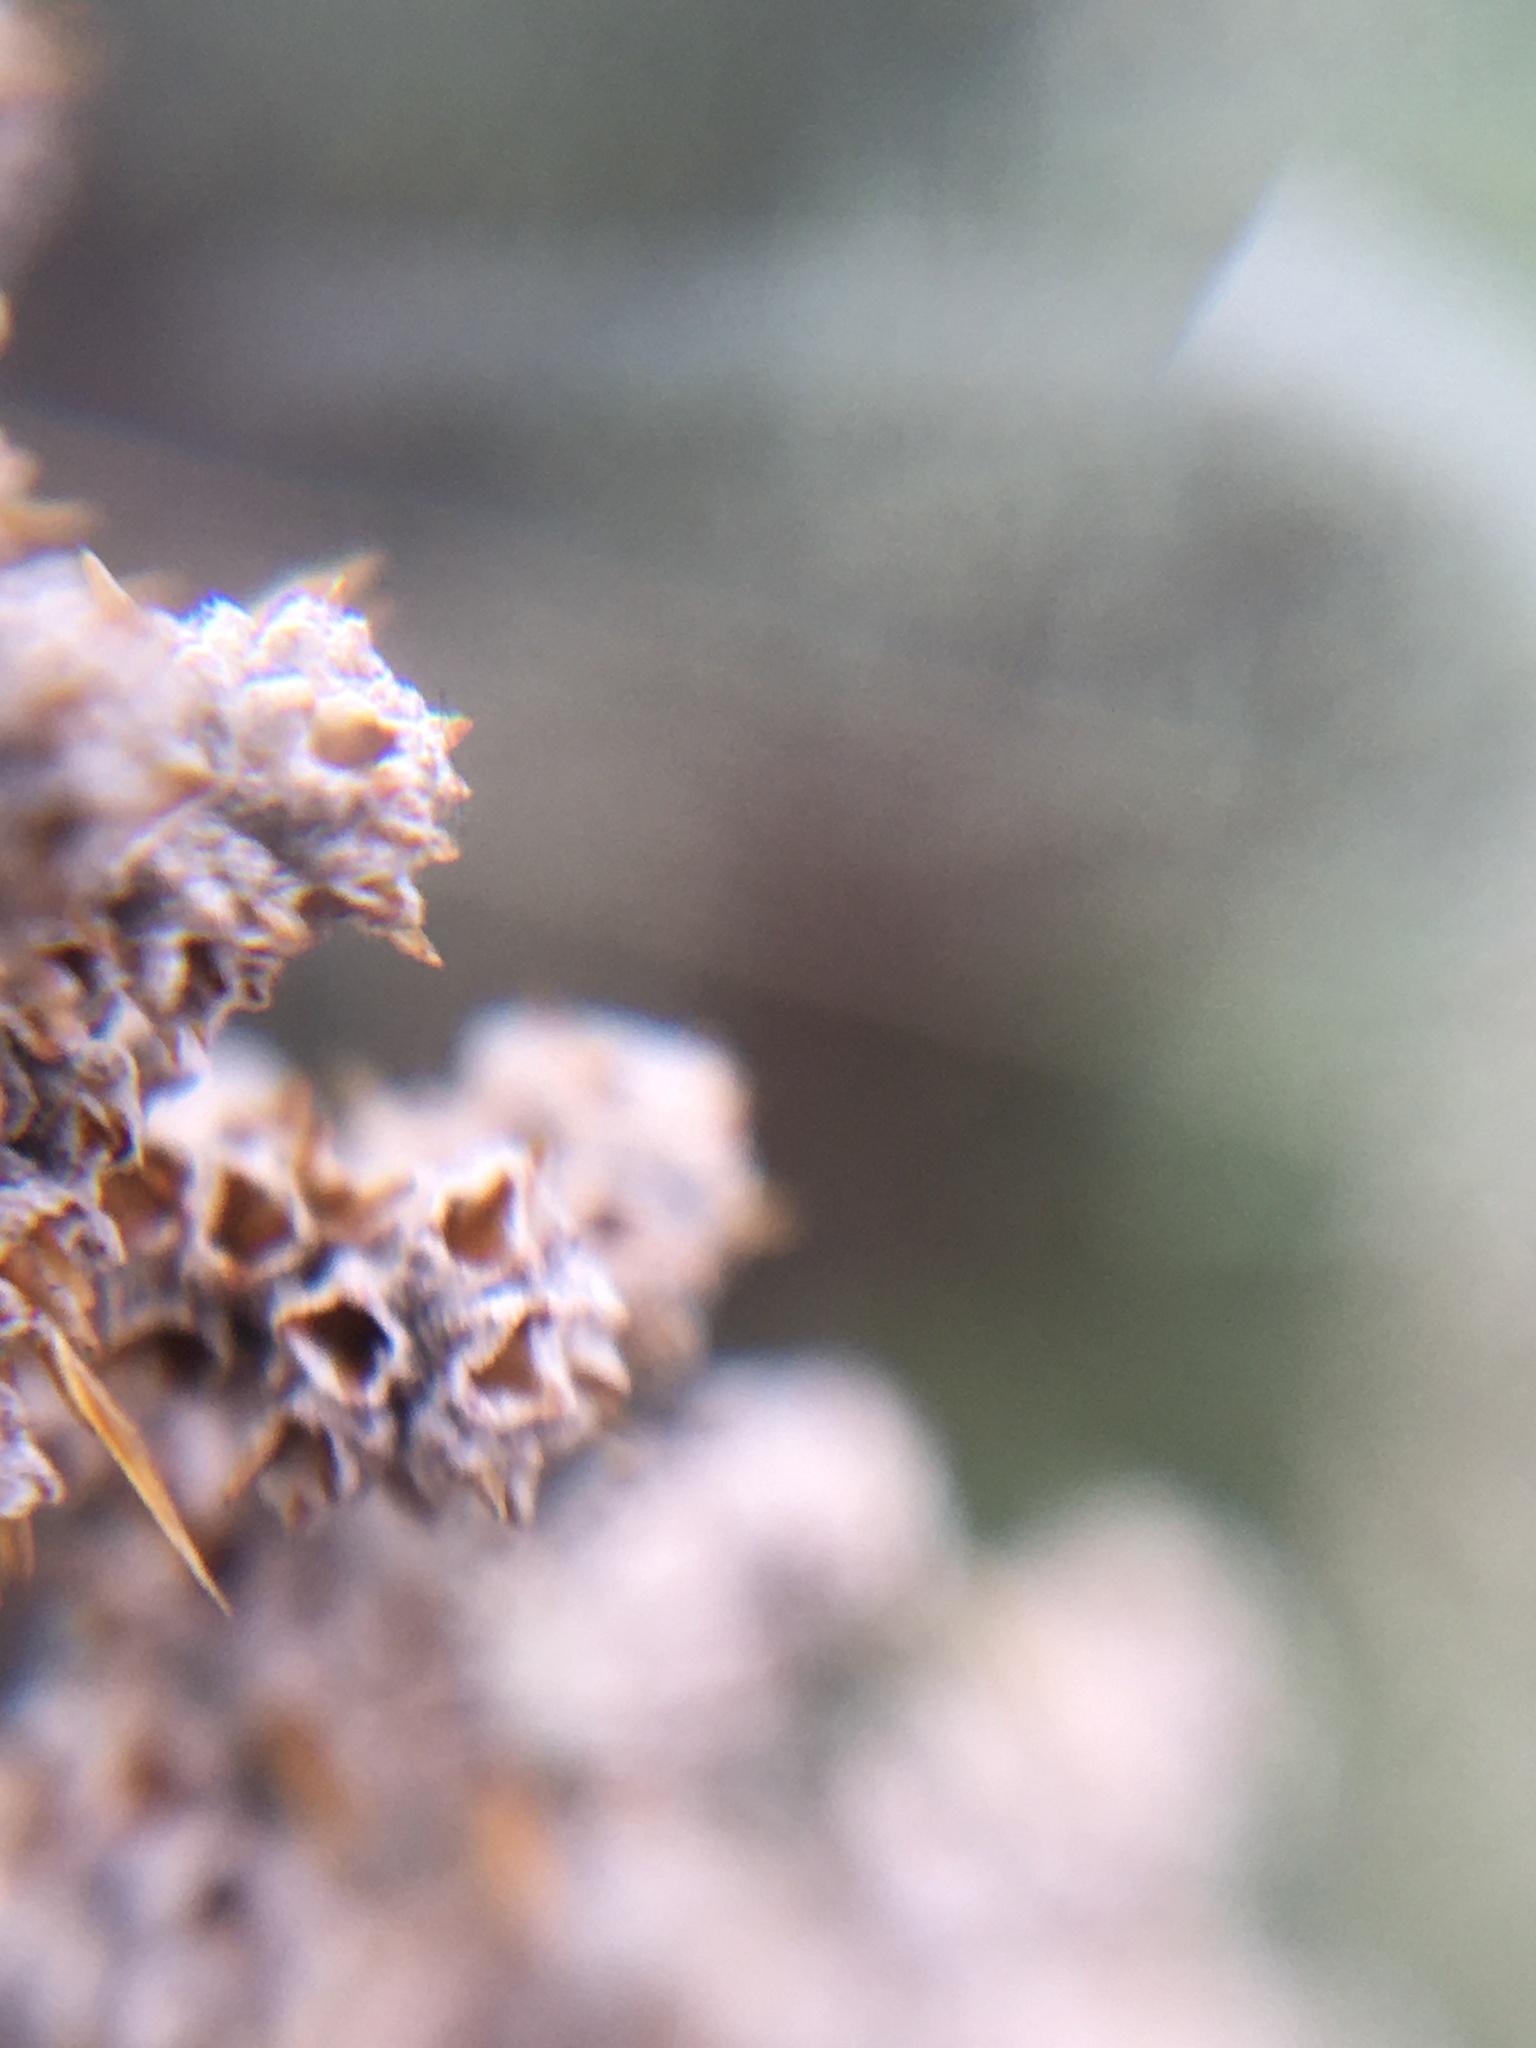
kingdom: Plantae
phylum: Tracheophyta
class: Magnoliopsida
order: Asterales
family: Asteraceae
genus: Seriphium
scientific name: Seriphium plumosum
